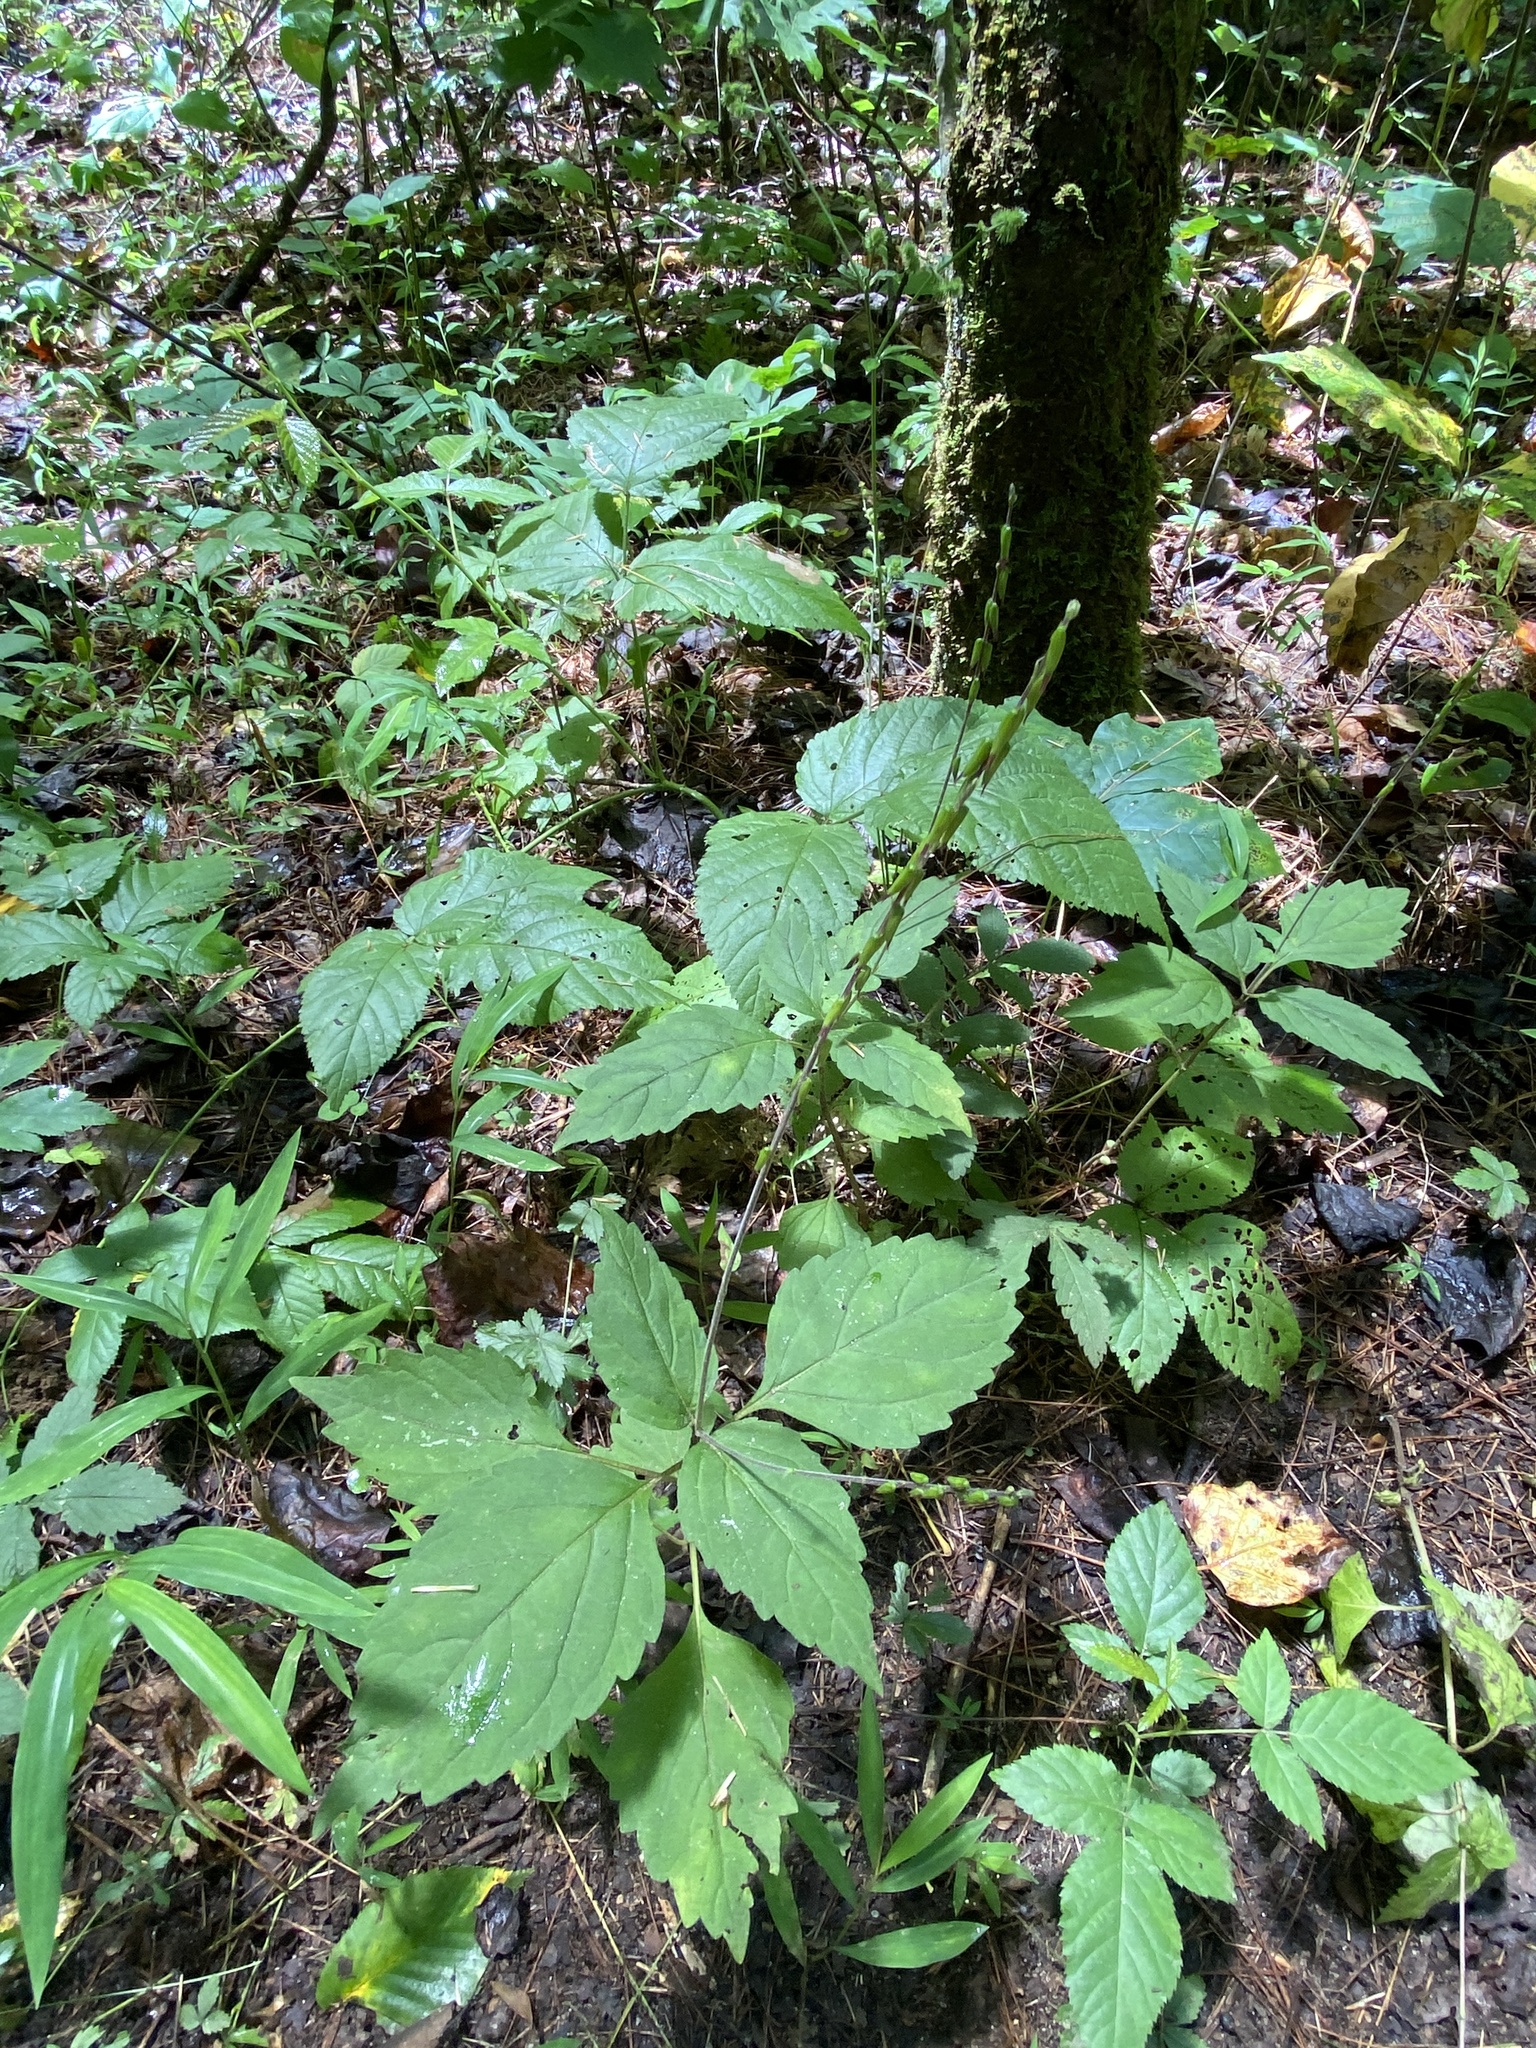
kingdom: Plantae
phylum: Tracheophyta
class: Magnoliopsida
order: Lamiales
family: Phrymaceae
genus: Phryma
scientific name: Phryma leptostachya
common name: American lopseed
